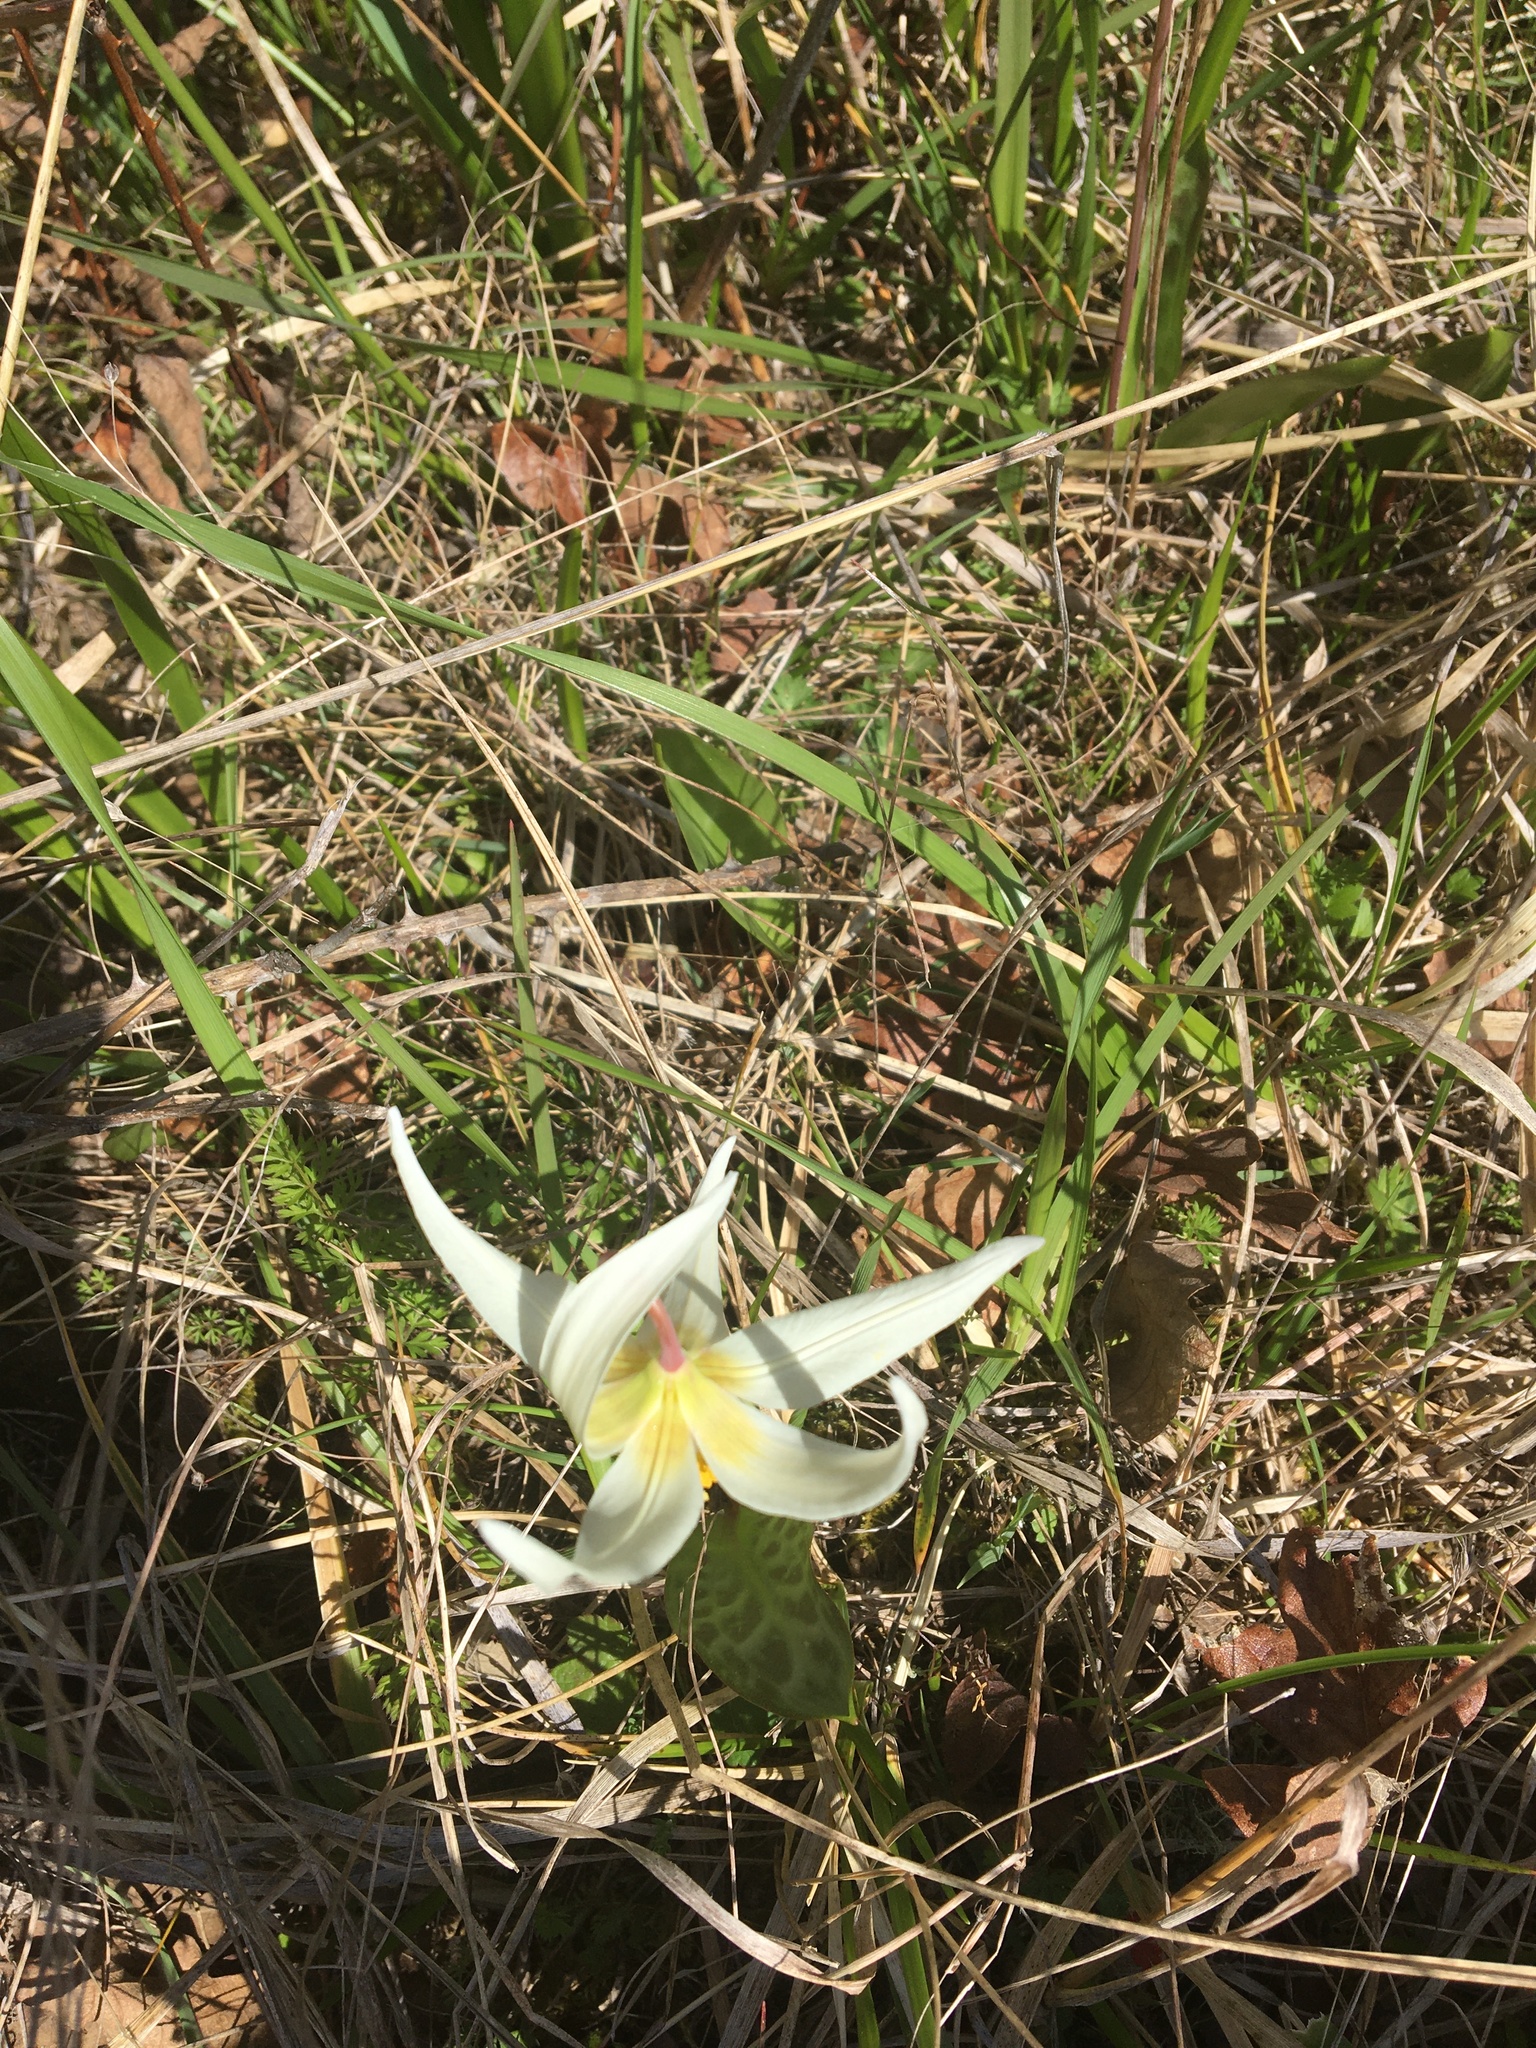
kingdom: Plantae
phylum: Tracheophyta
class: Liliopsida
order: Liliales
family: Liliaceae
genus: Erythronium
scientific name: Erythronium oregonum
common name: Giant adder's-tongue
